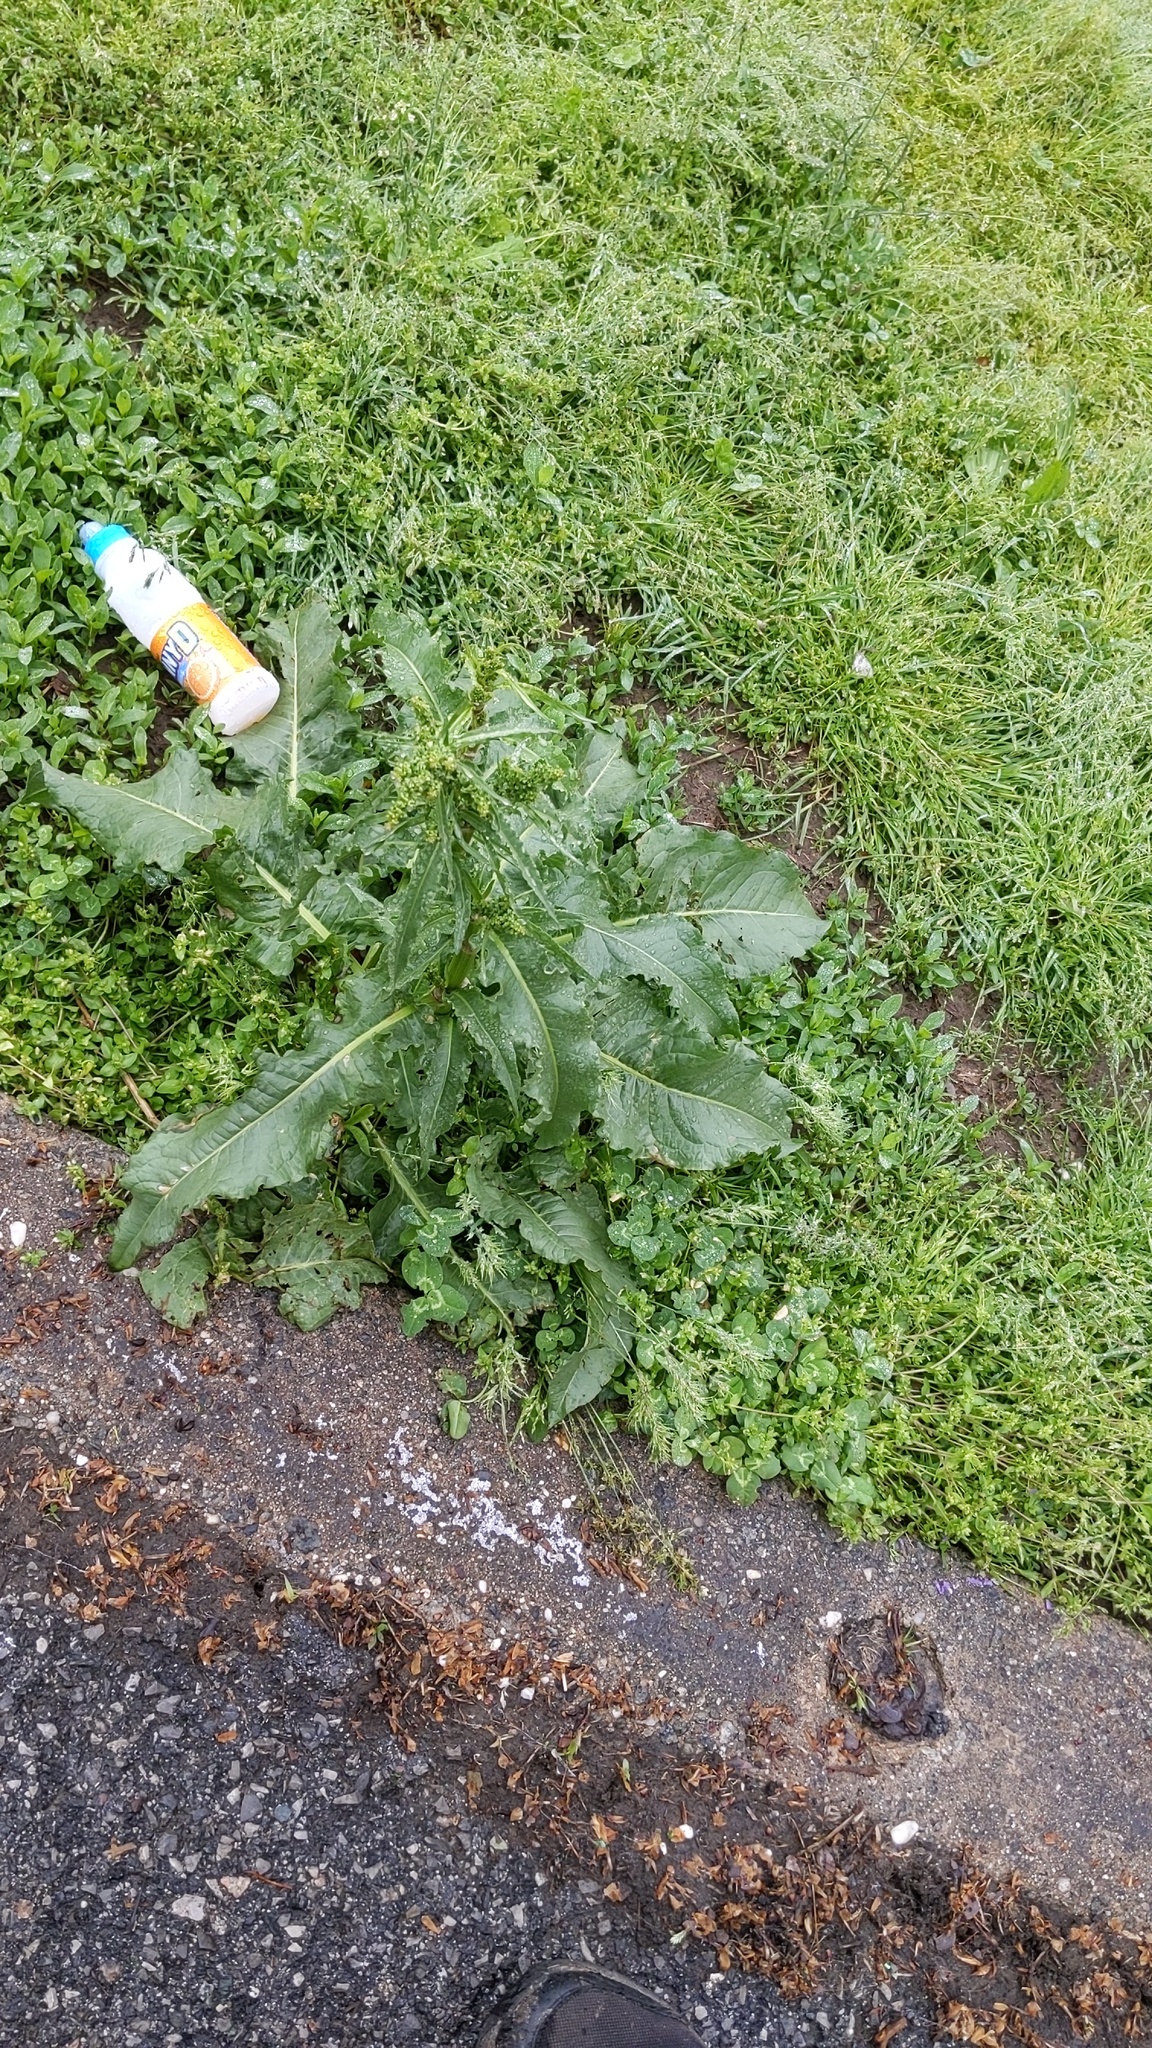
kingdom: Plantae
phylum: Tracheophyta
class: Magnoliopsida
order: Caryophyllales
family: Polygonaceae
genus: Rumex
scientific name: Rumex crispus
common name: Curled dock
